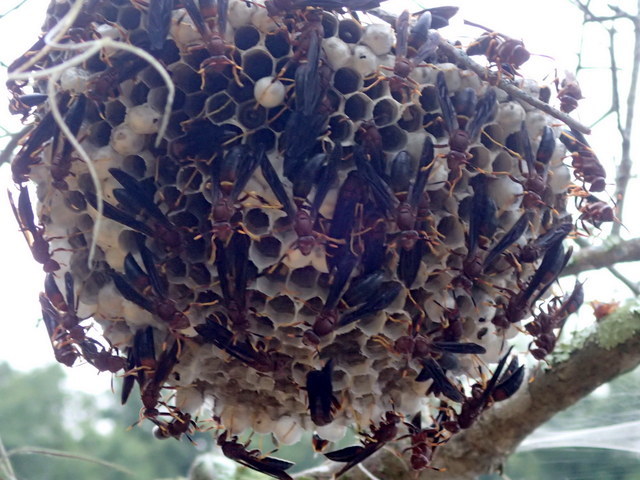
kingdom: Animalia
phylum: Arthropoda
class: Insecta
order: Hymenoptera
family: Eumenidae
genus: Polistes
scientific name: Polistes annularis
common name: Ringed paper wasp
